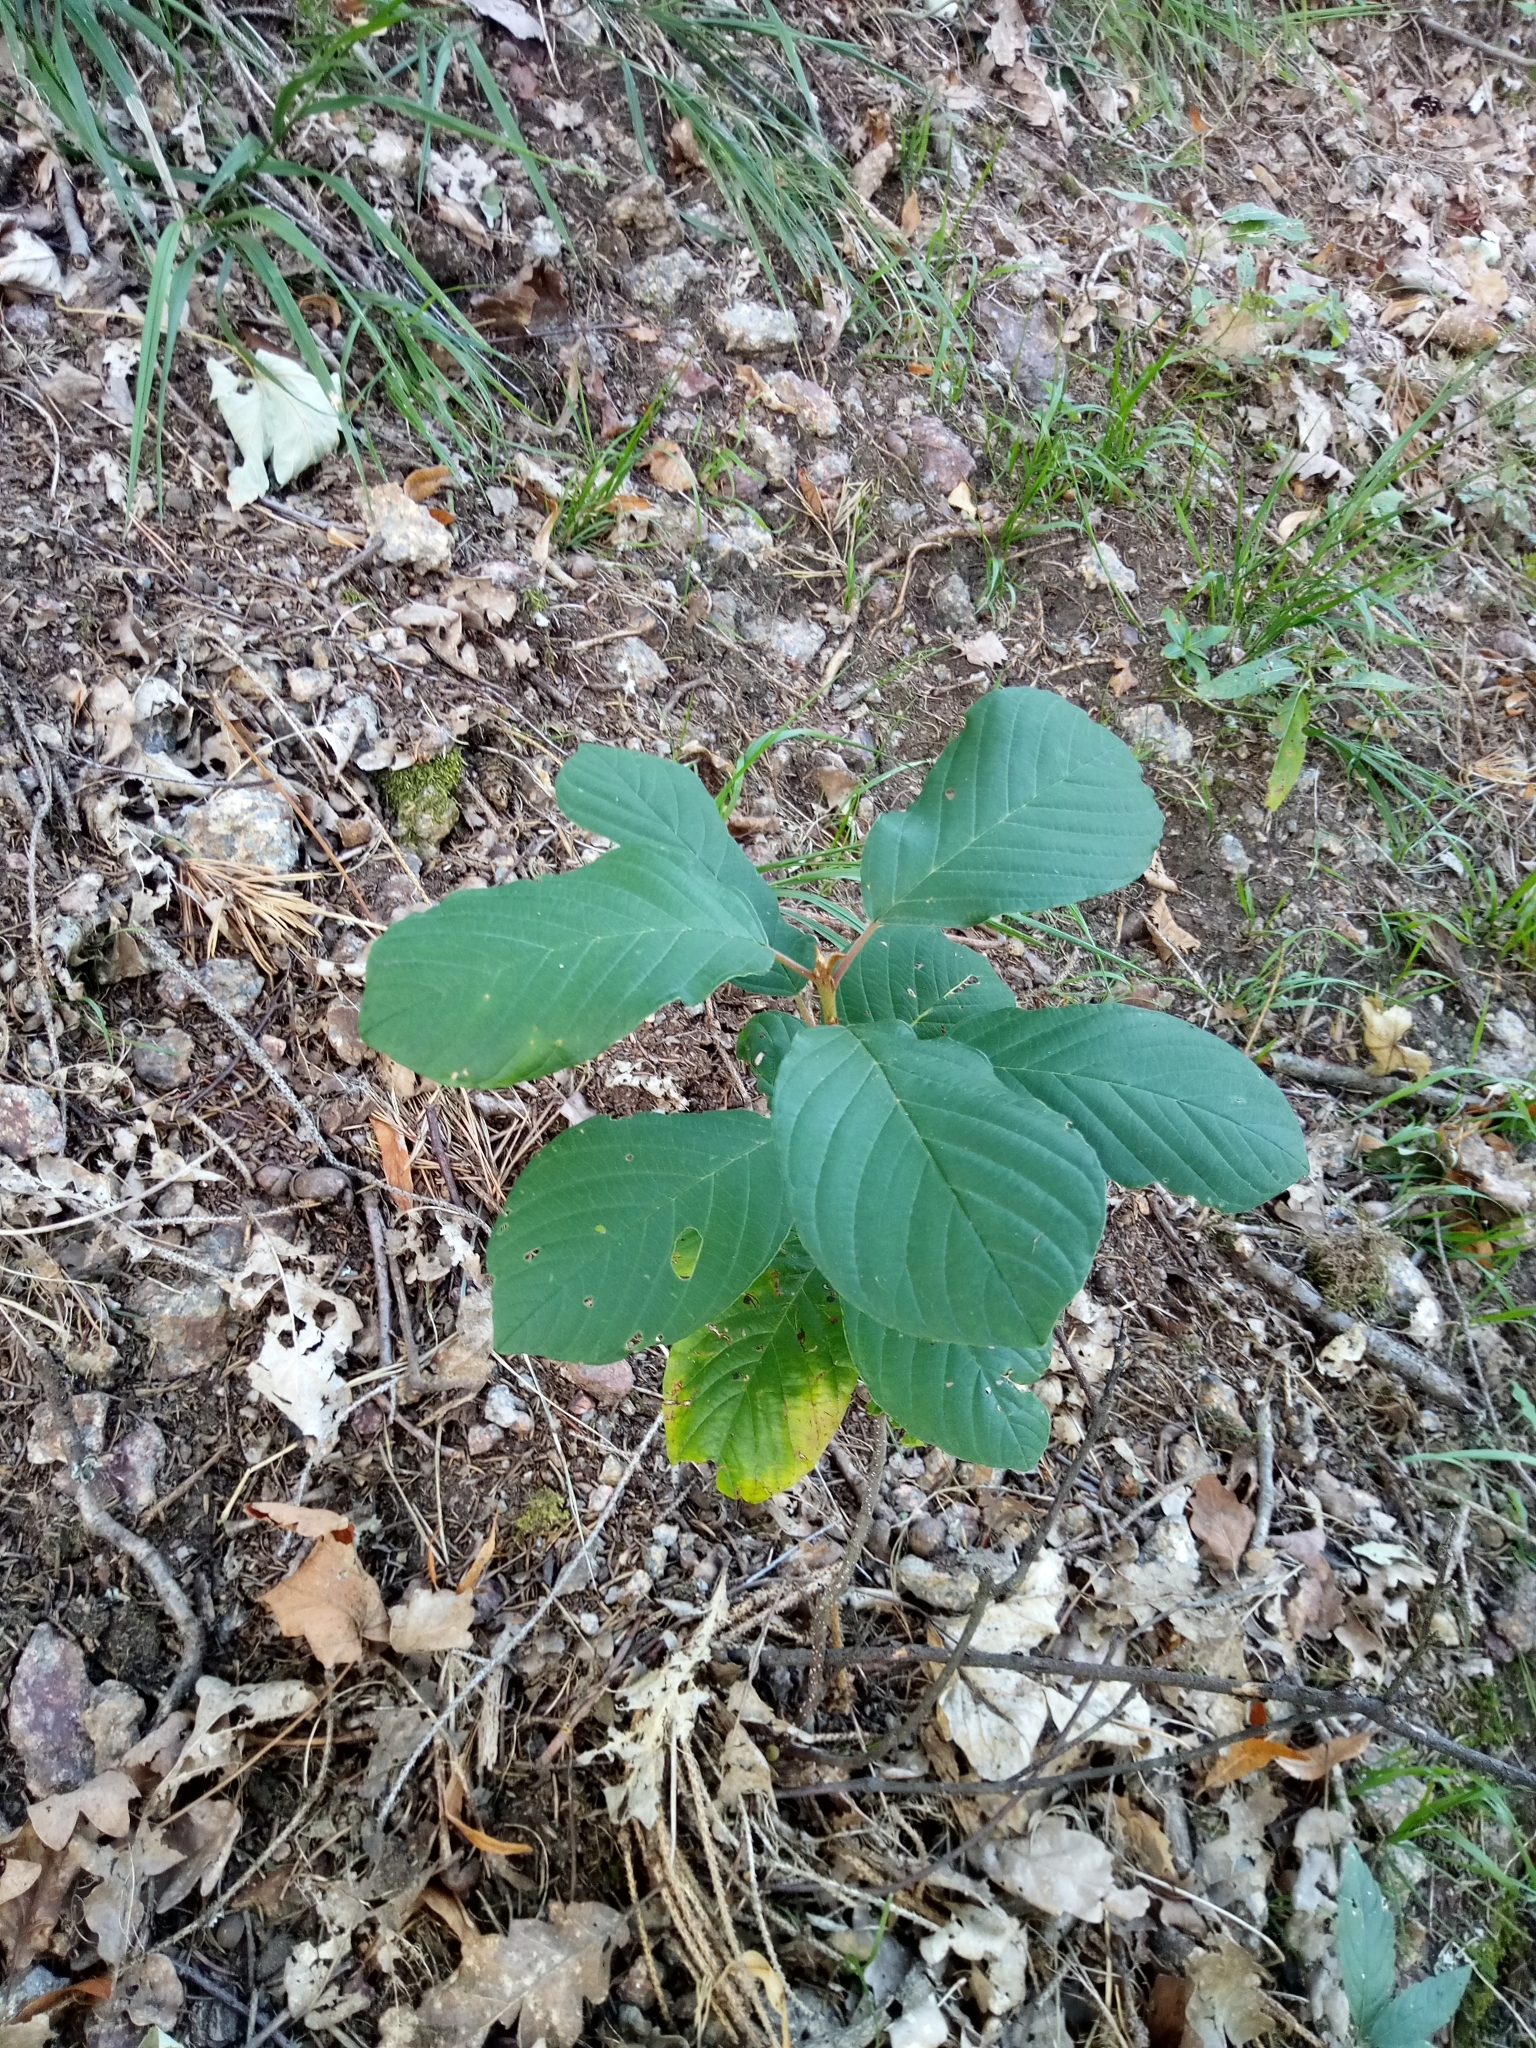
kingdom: Plantae
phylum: Tracheophyta
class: Magnoliopsida
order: Rosales
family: Rhamnaceae
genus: Frangula
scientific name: Frangula alnus
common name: Alder buckthorn
